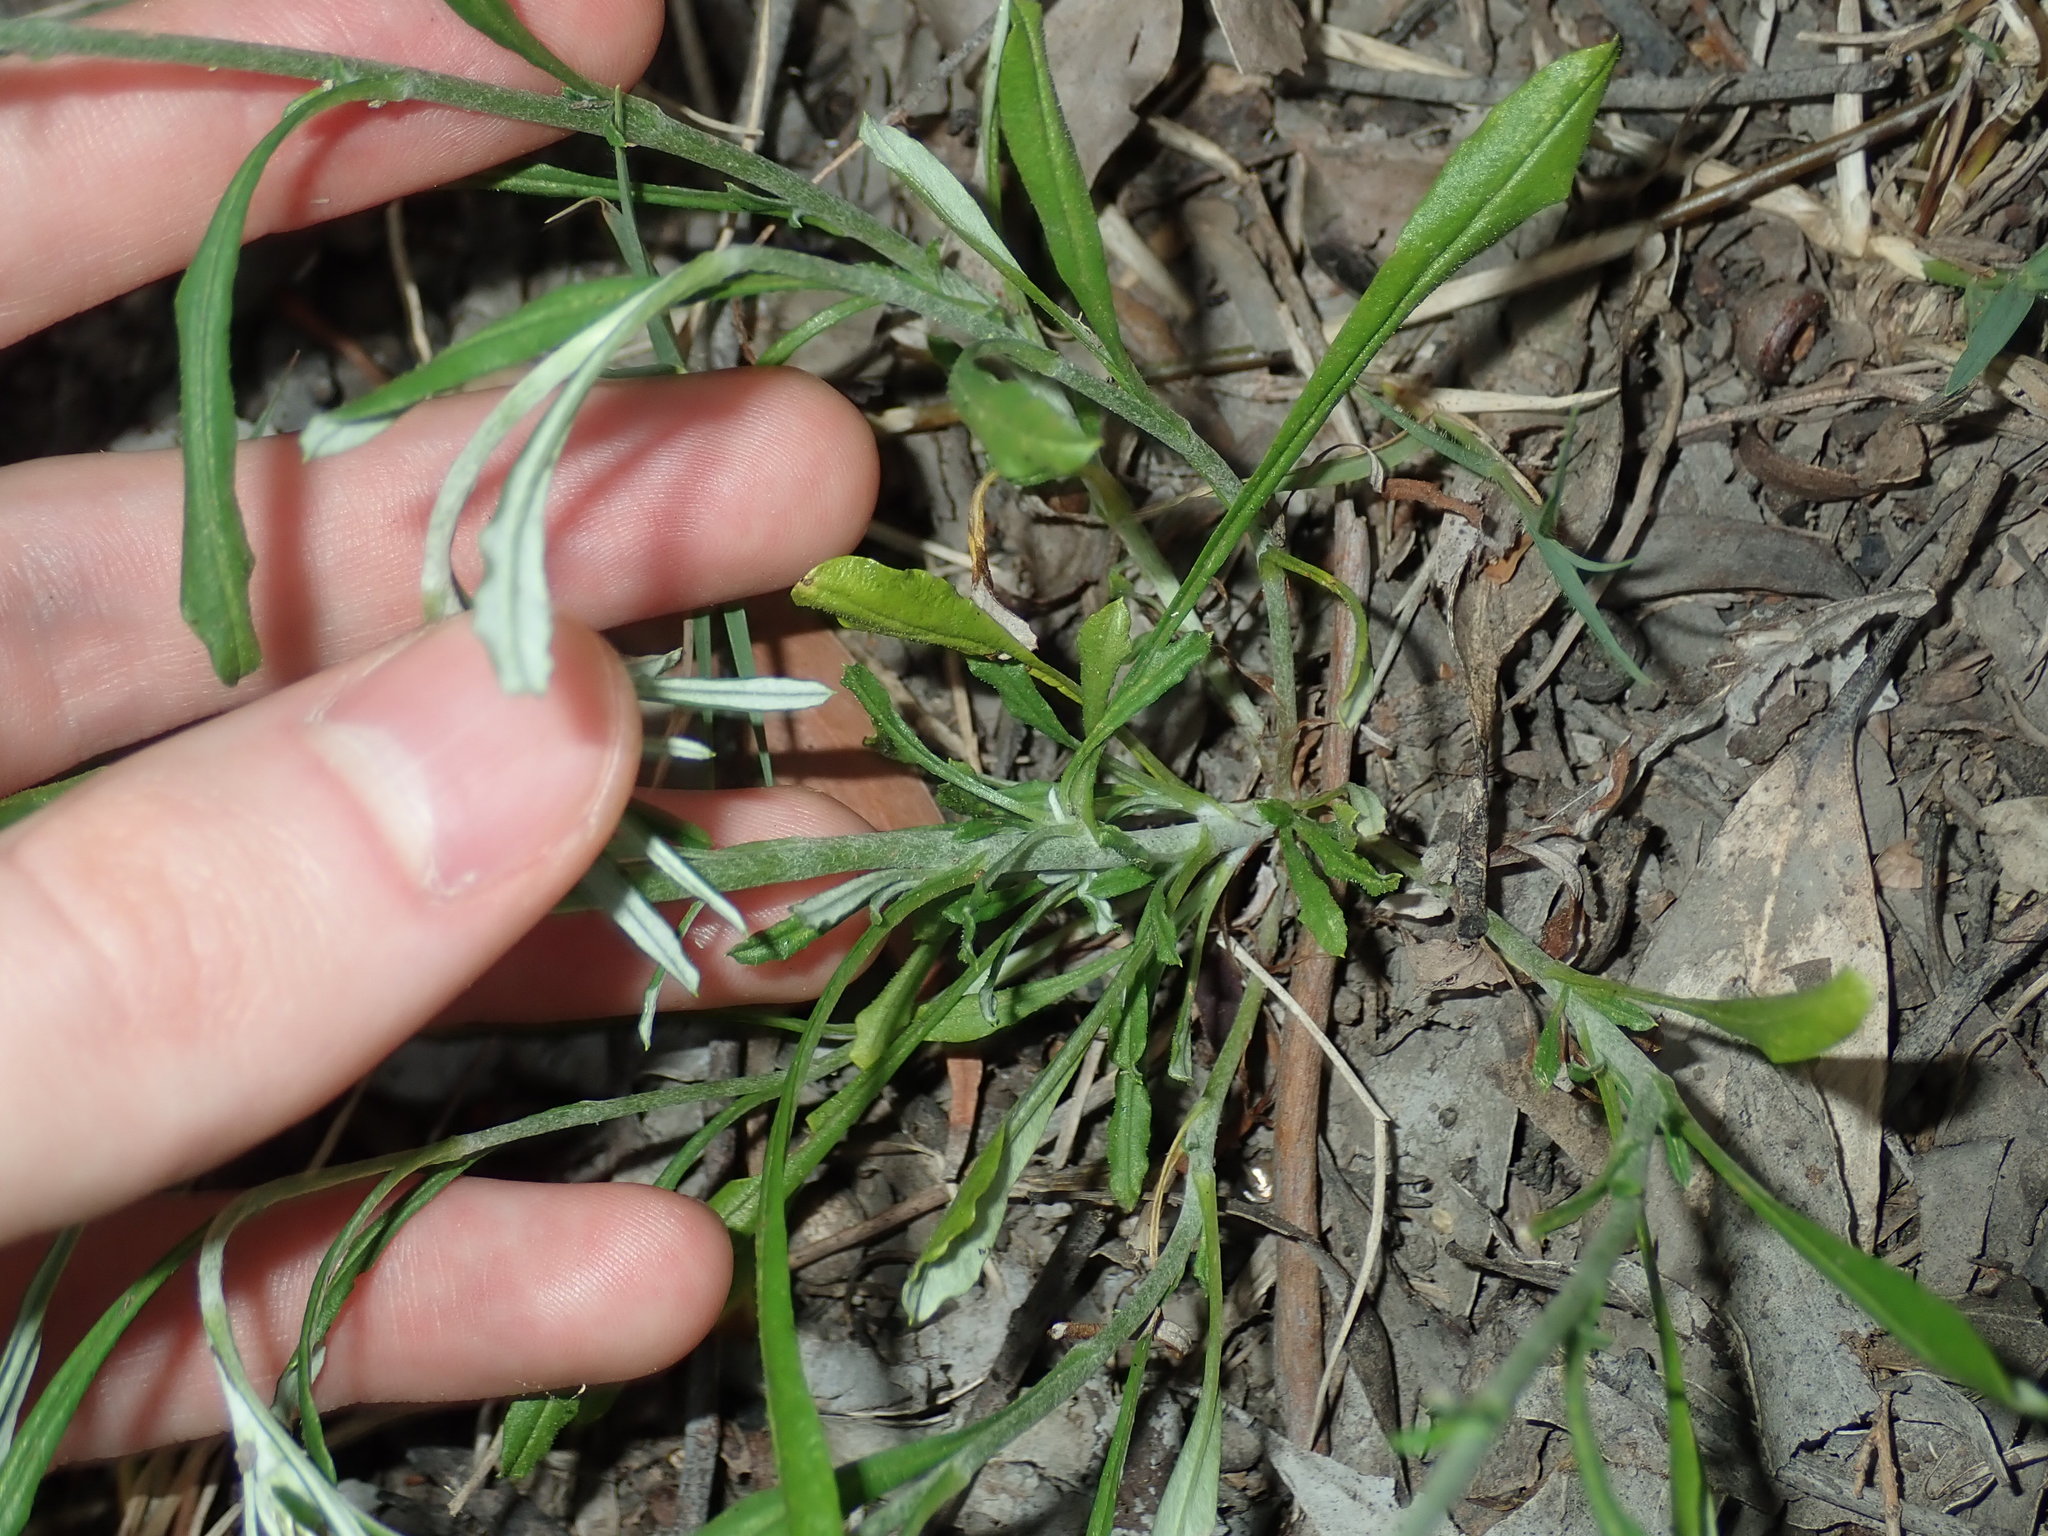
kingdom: Plantae
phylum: Tracheophyta
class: Magnoliopsida
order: Asterales
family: Asteraceae
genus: Euchiton
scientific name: Euchiton sphaericus
